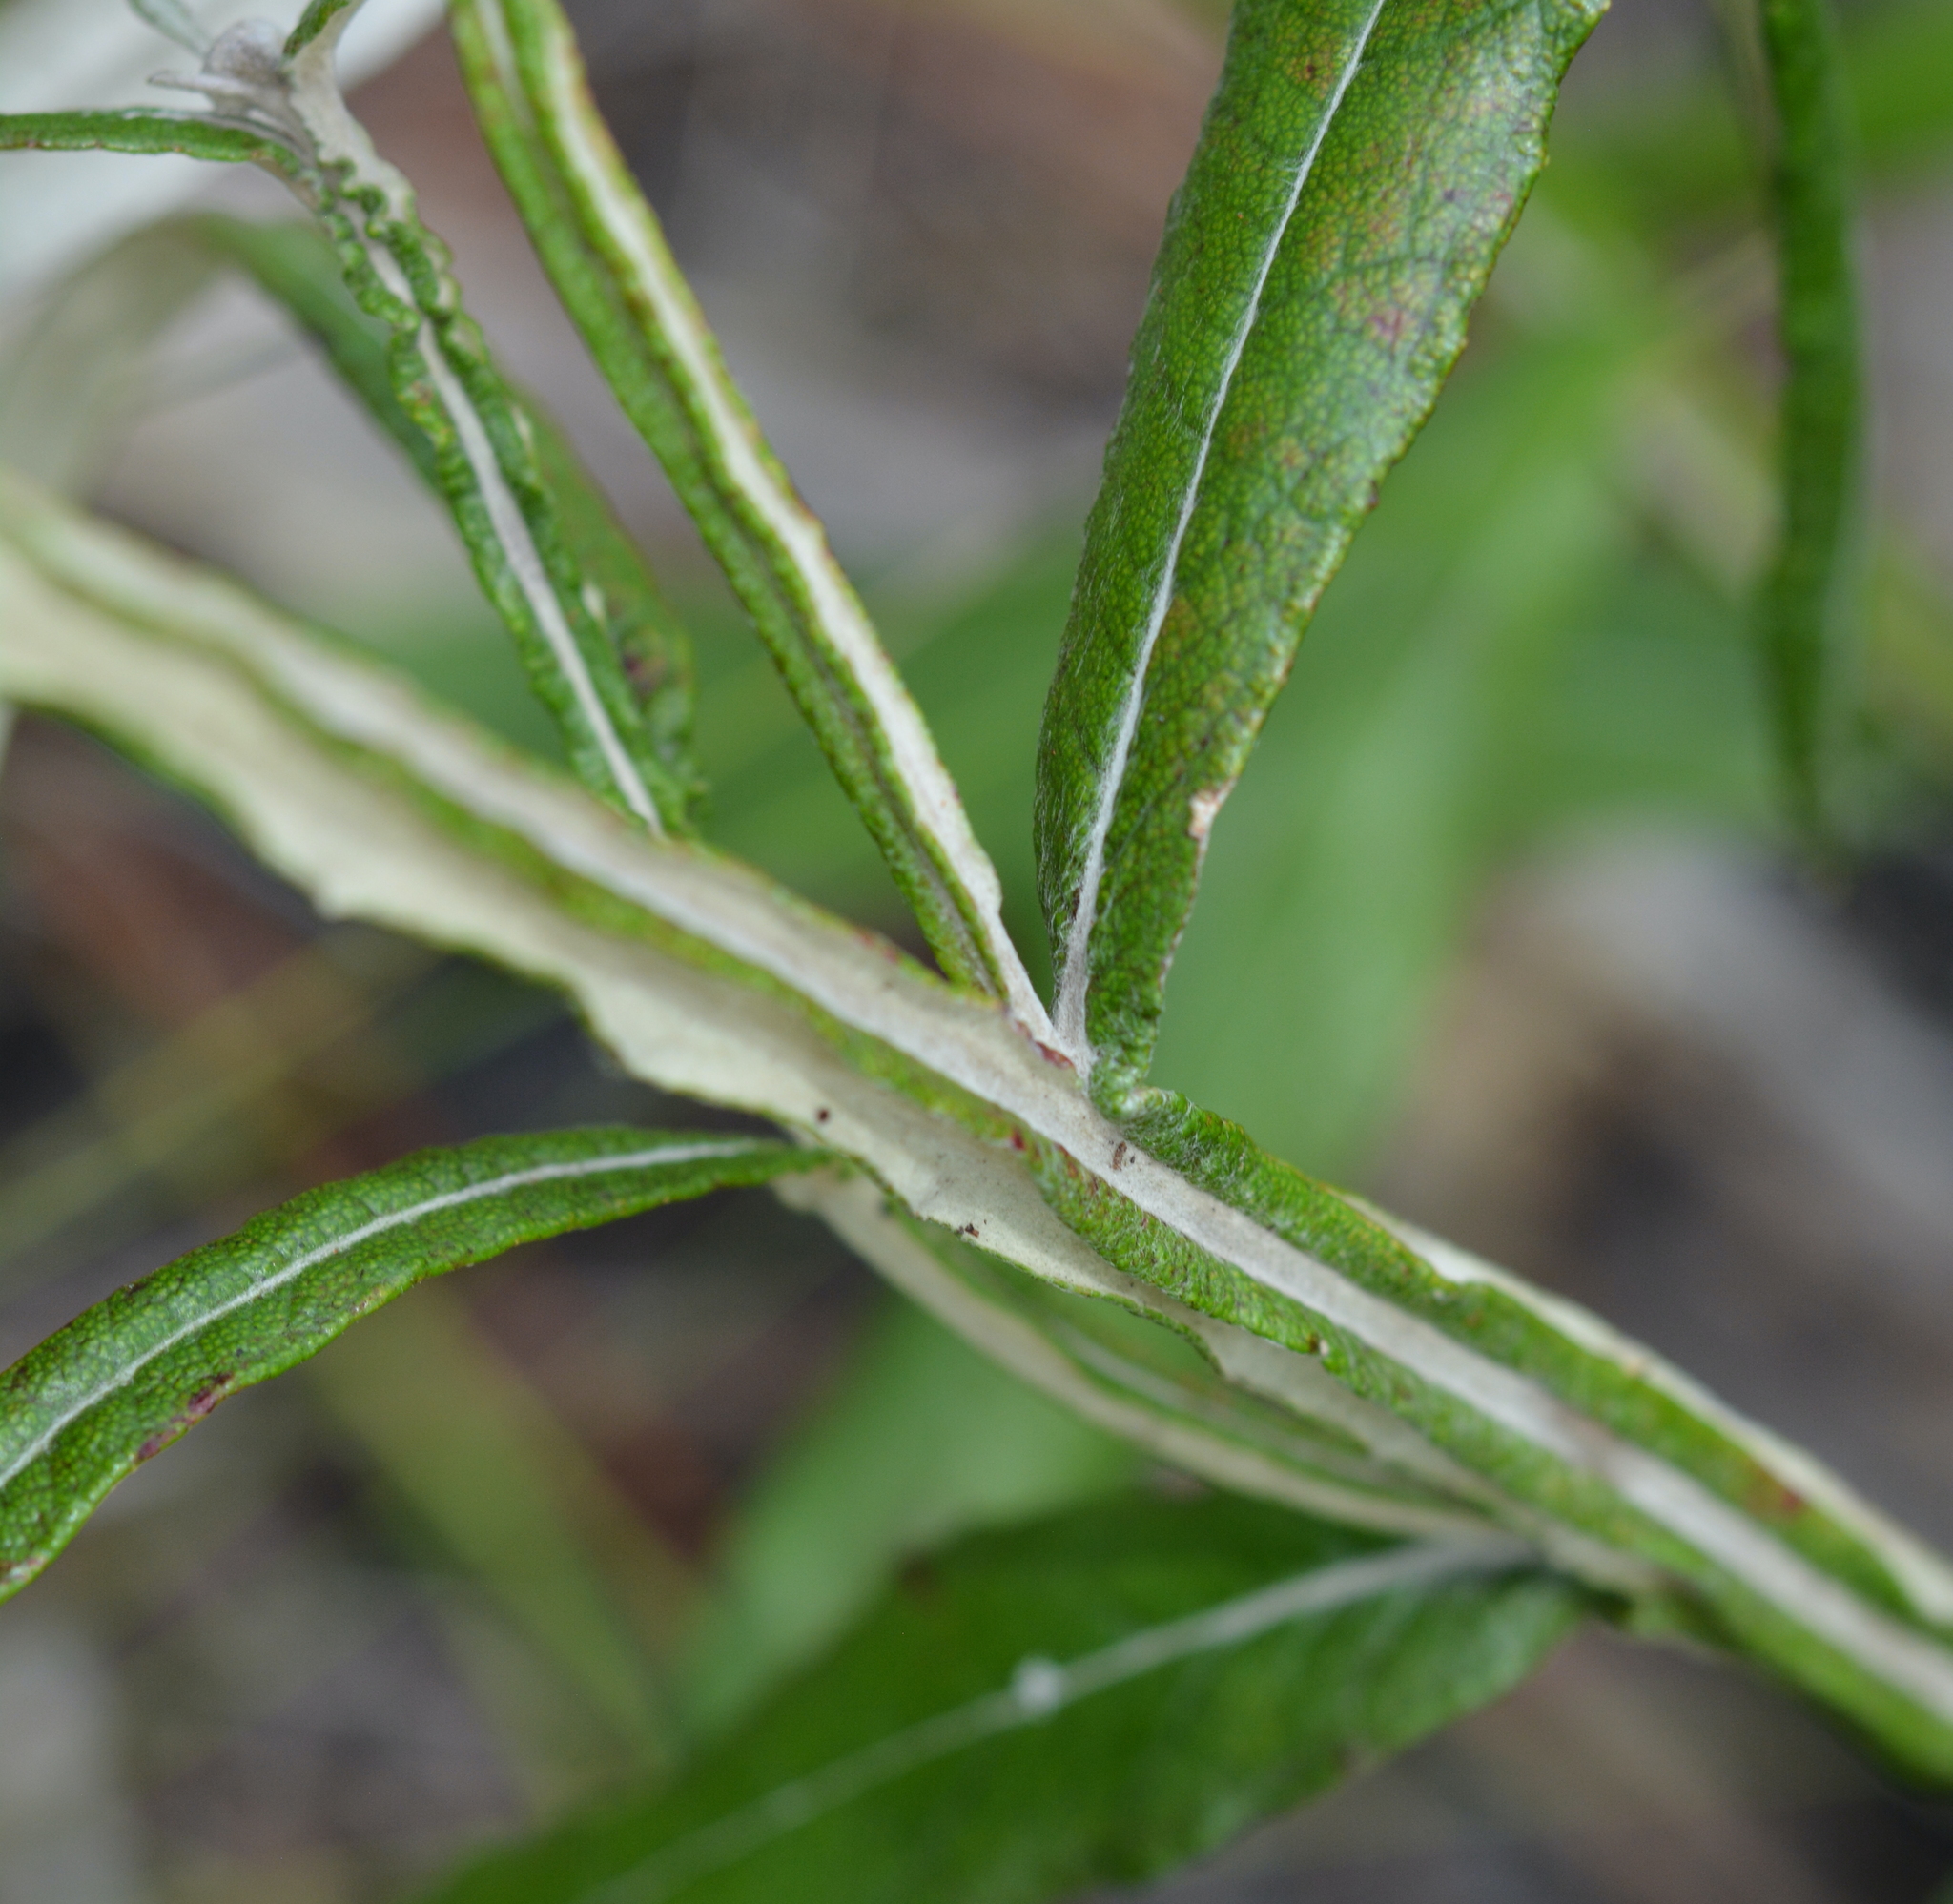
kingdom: Plantae
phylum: Tracheophyta
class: Magnoliopsida
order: Asterales
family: Asteraceae
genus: Pterocaulon
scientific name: Pterocaulon pycnostachyum
